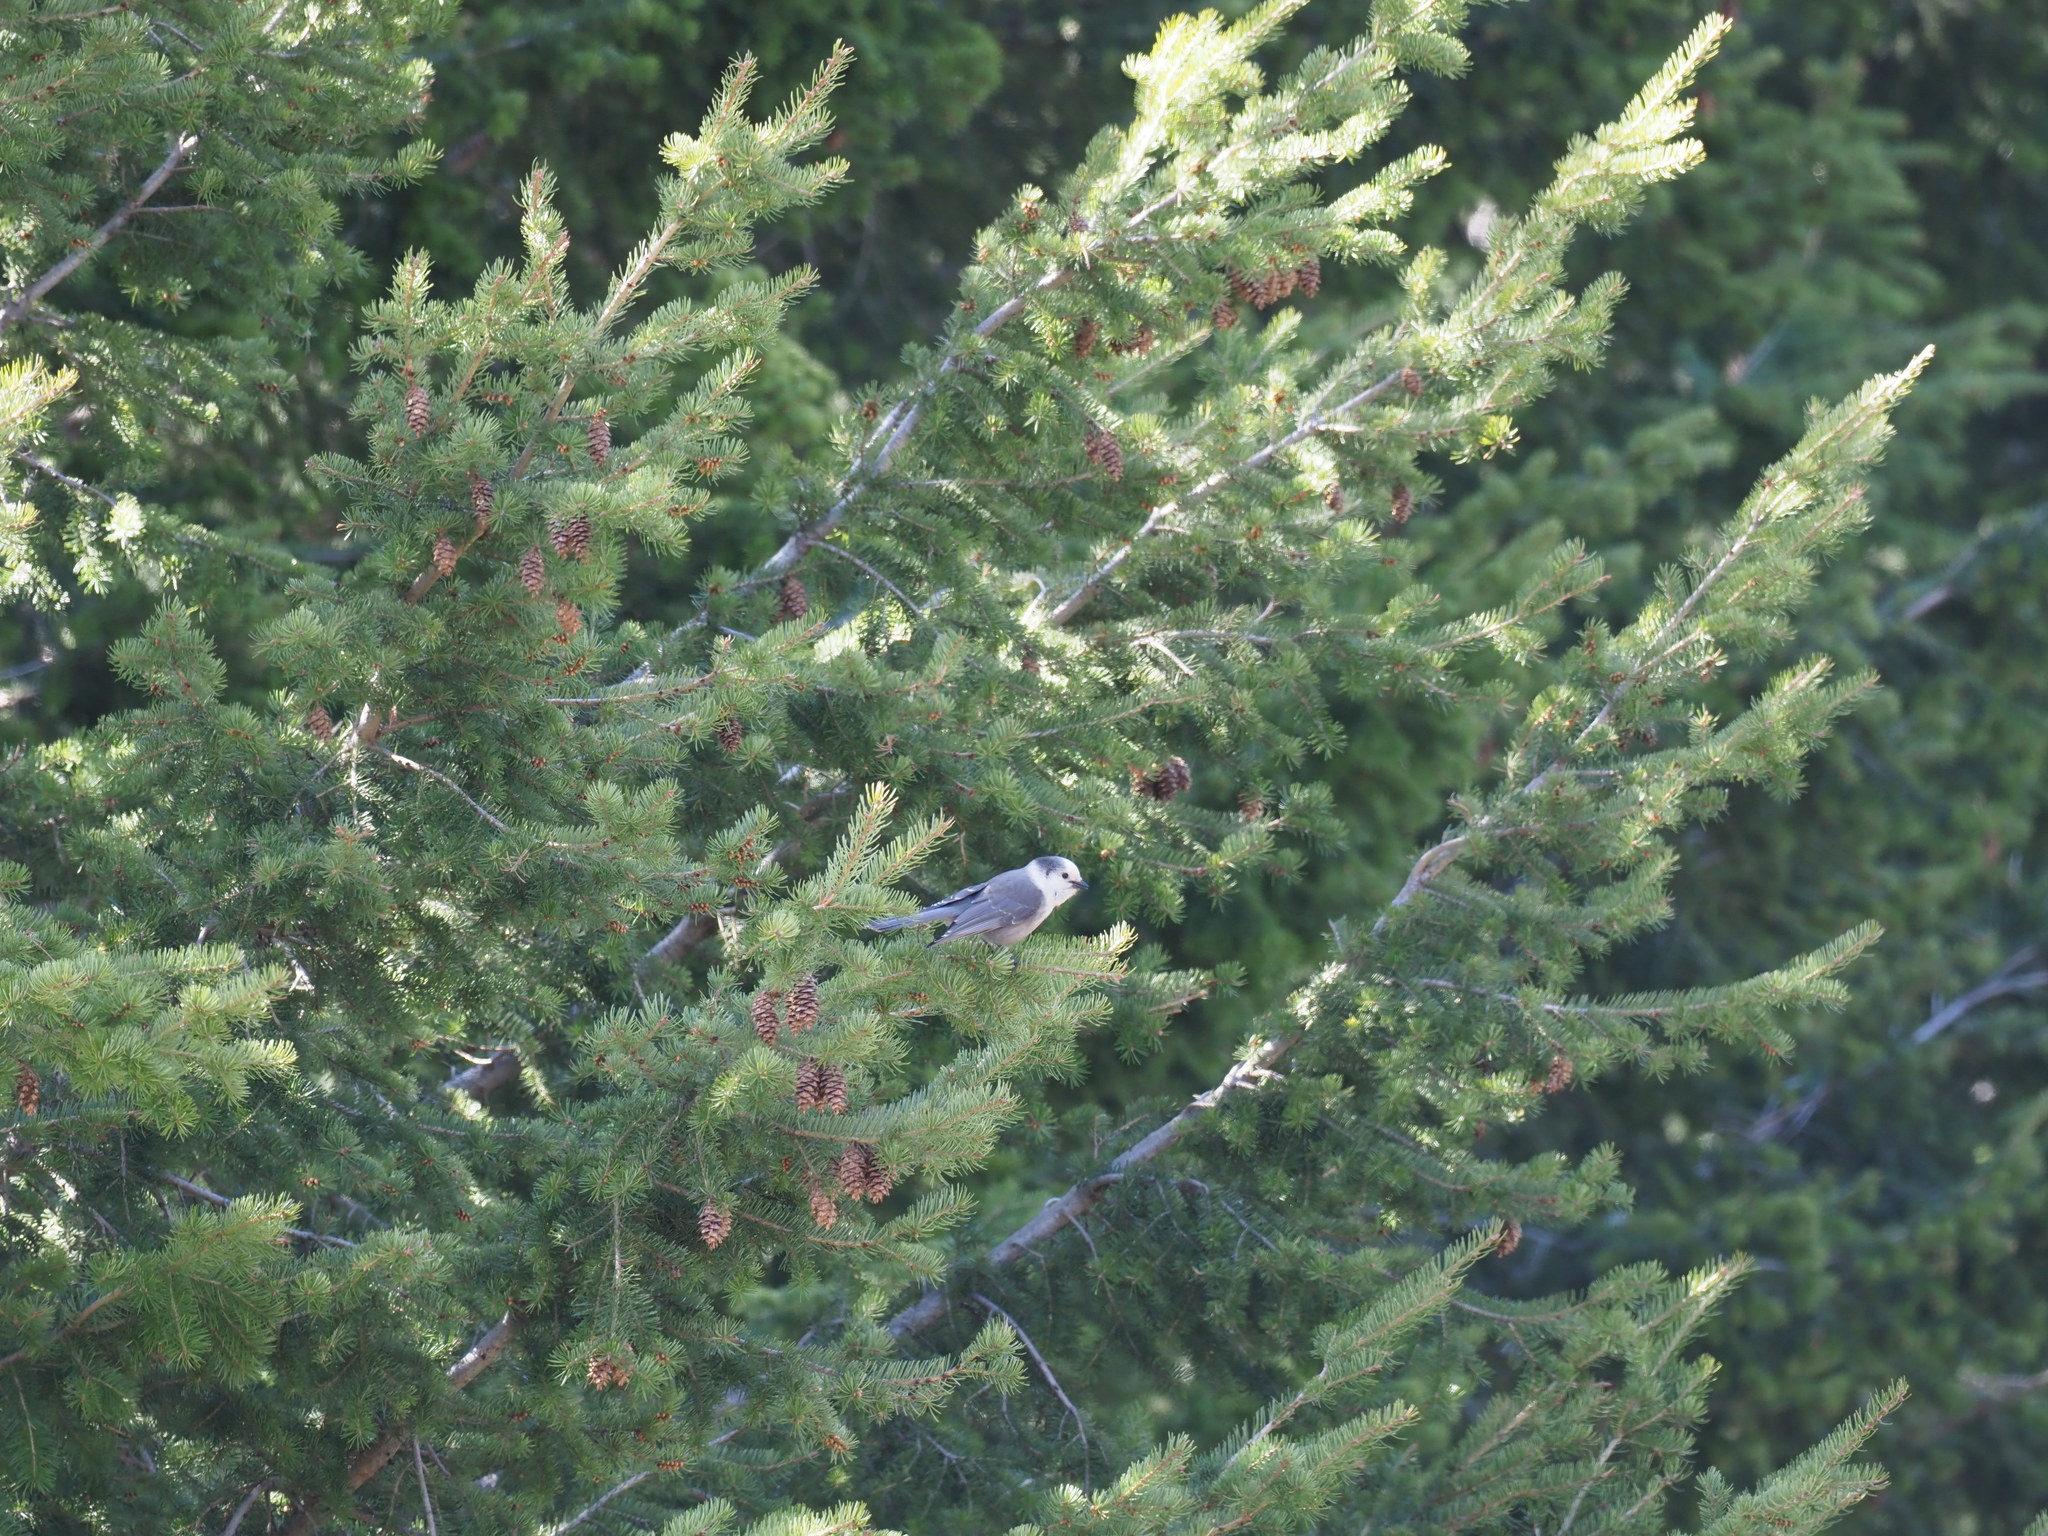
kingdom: Animalia
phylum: Chordata
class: Aves
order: Passeriformes
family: Corvidae
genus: Perisoreus
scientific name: Perisoreus canadensis
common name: Gray jay
